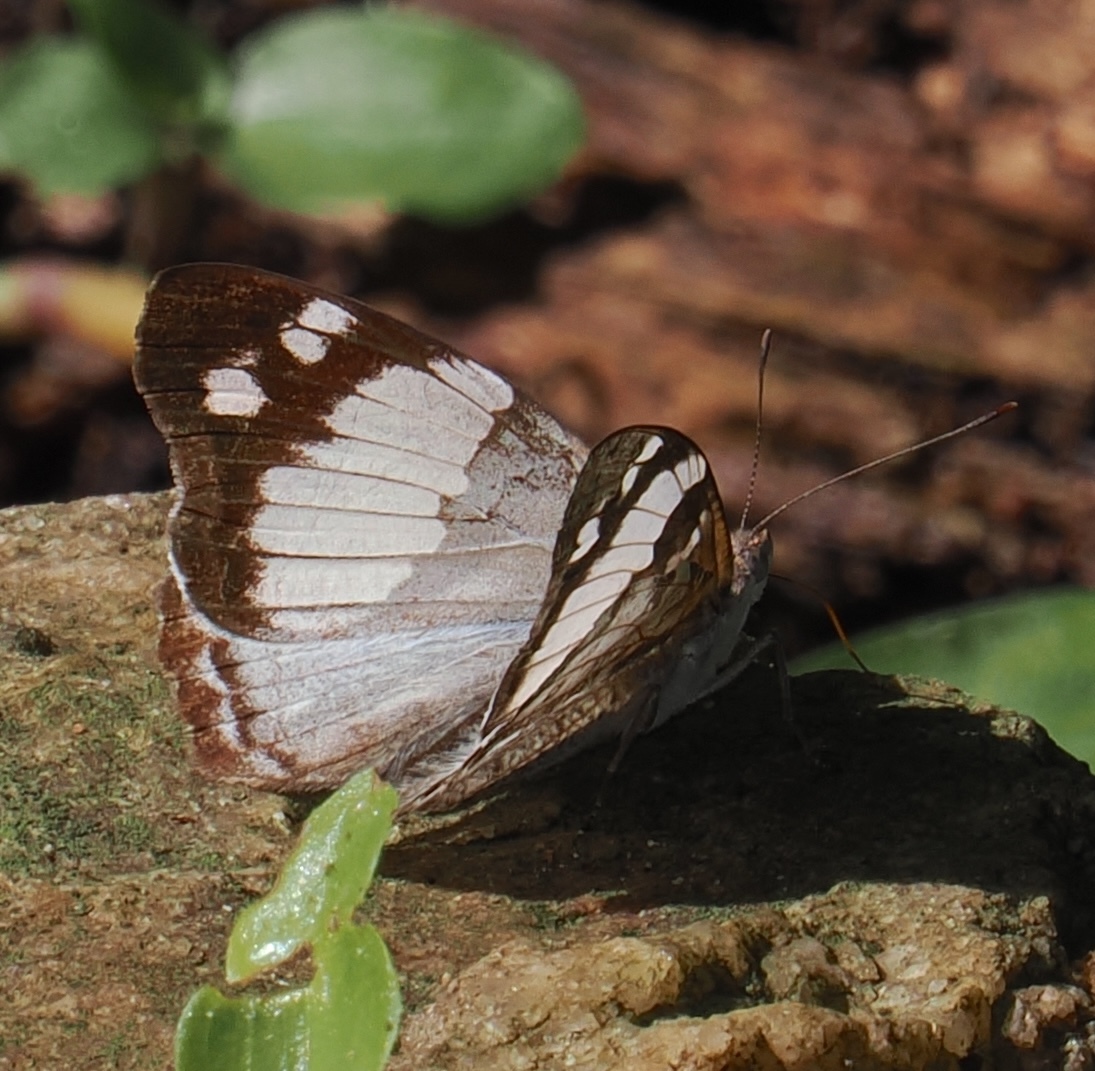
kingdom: Animalia
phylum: Arthropoda
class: Insecta
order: Lepidoptera
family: Nymphalidae
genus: Eunica
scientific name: Eunica margarita
